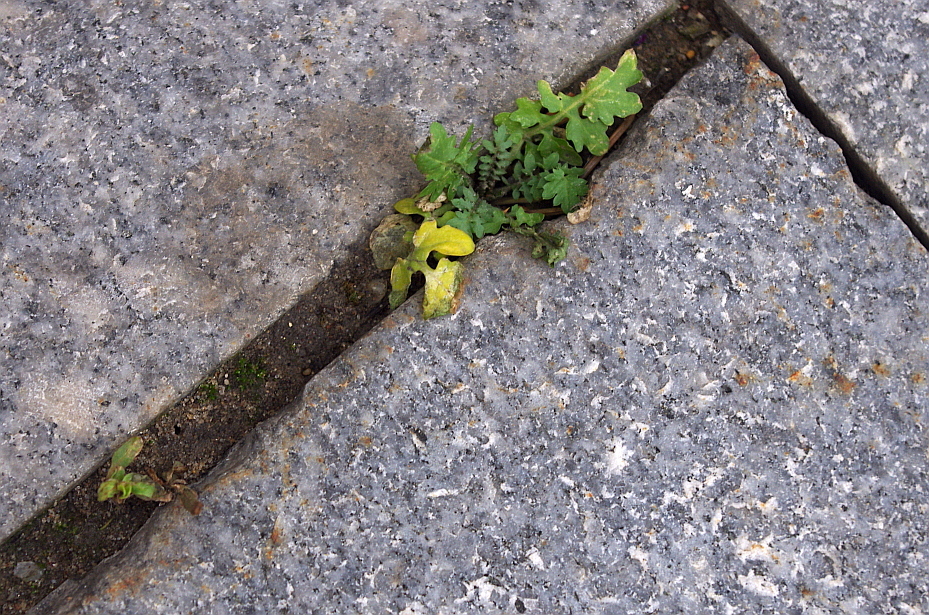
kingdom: Plantae
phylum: Tracheophyta
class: Magnoliopsida
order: Brassicales
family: Brassicaceae
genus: Rorippa
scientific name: Rorippa palustris
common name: Marsh yellow-cress
